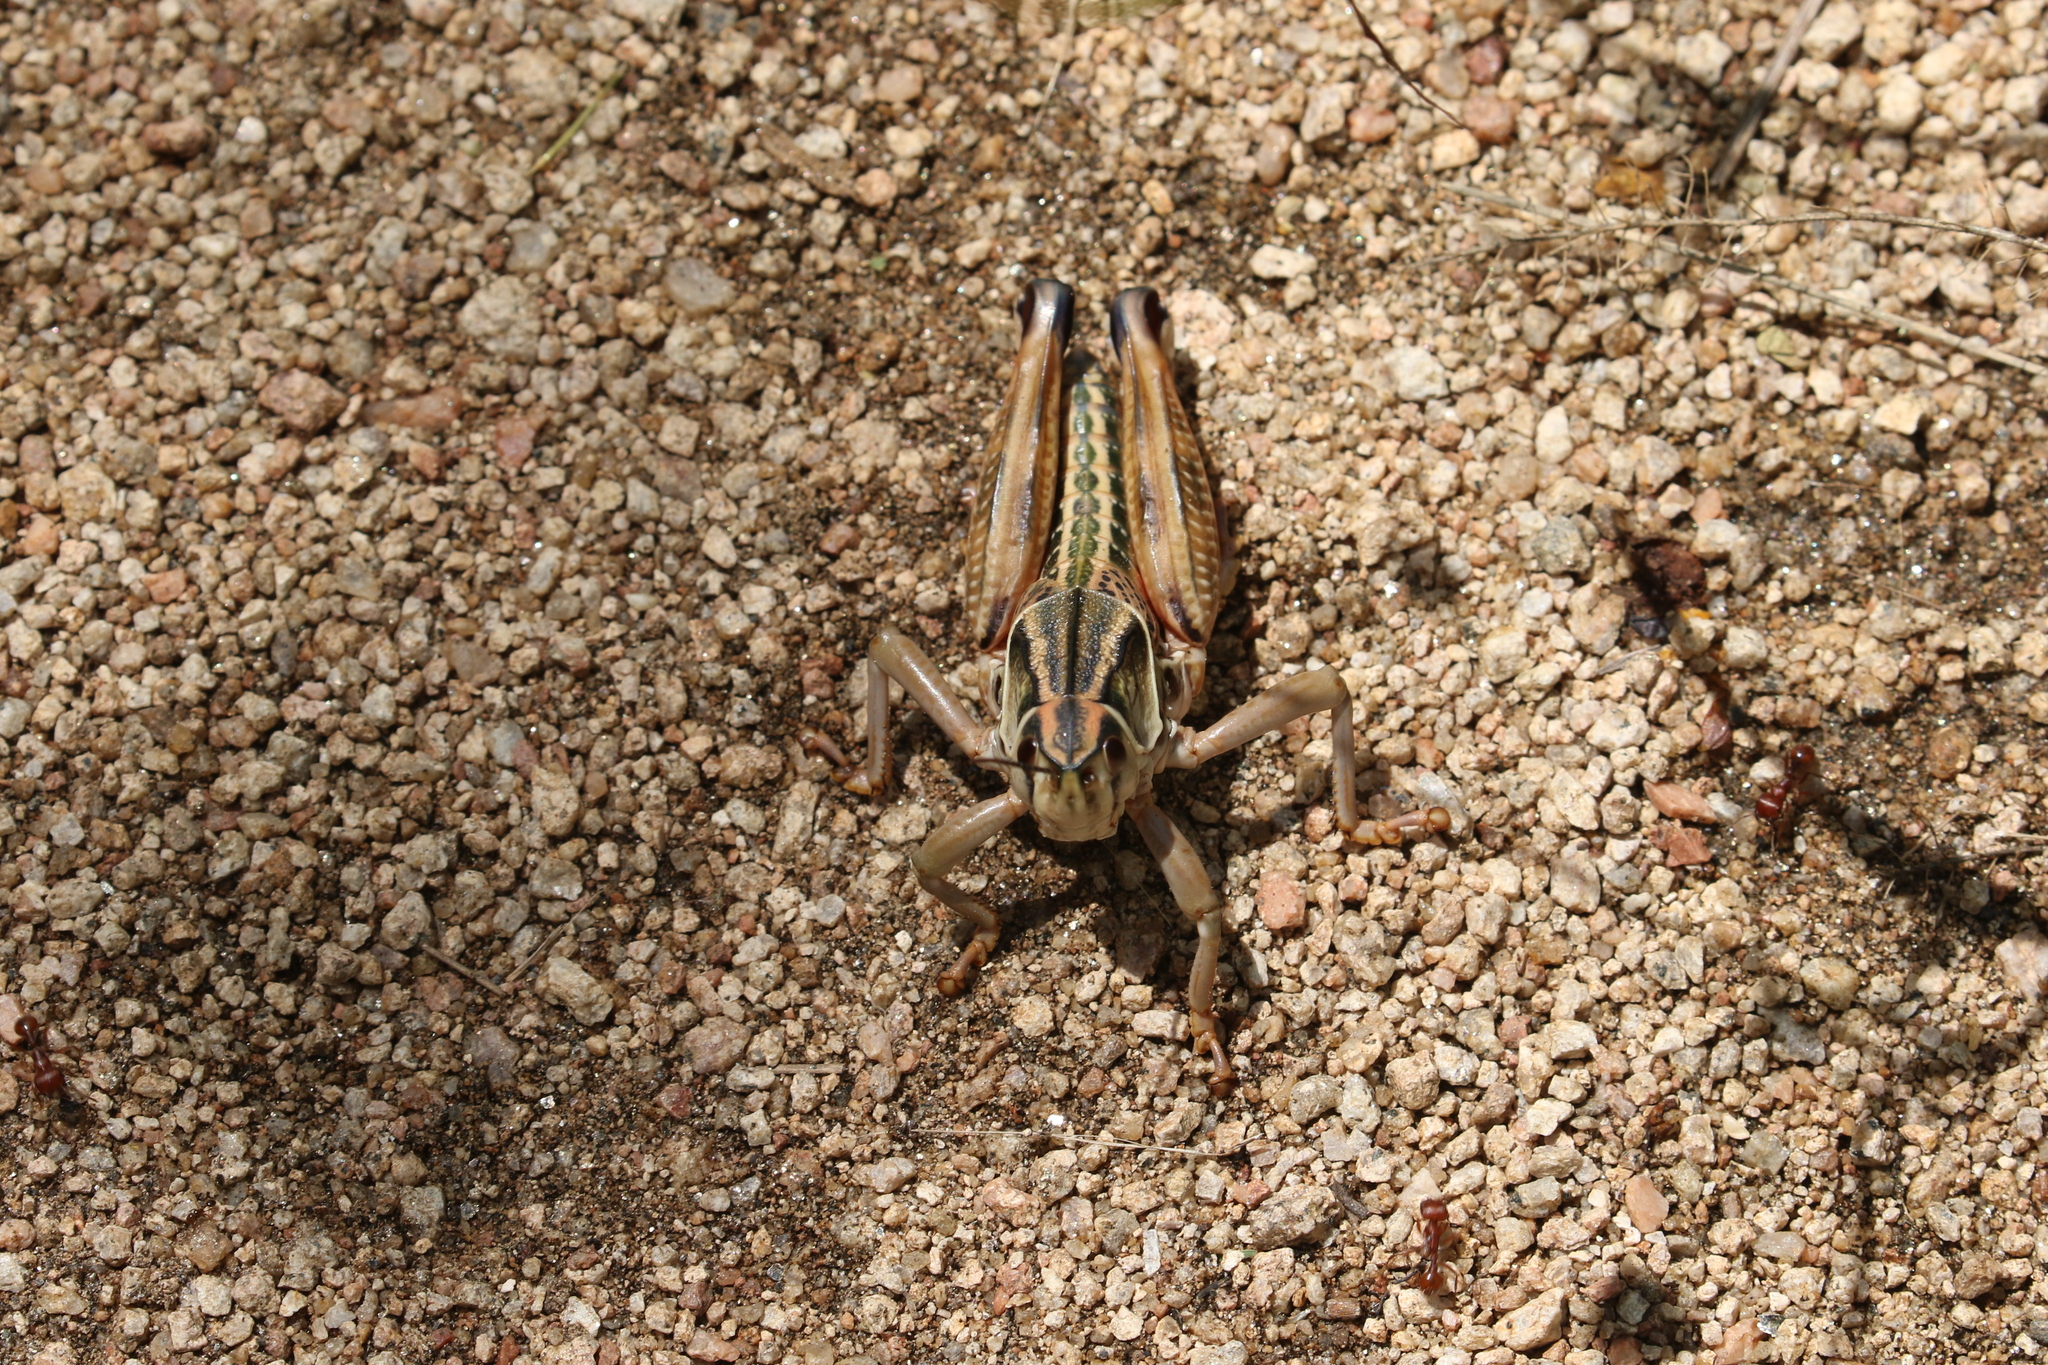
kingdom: Animalia
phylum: Arthropoda
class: Insecta
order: Orthoptera
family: Romaleidae
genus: Brachystola
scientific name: Brachystola magna
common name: Plains lubber grasshopper
